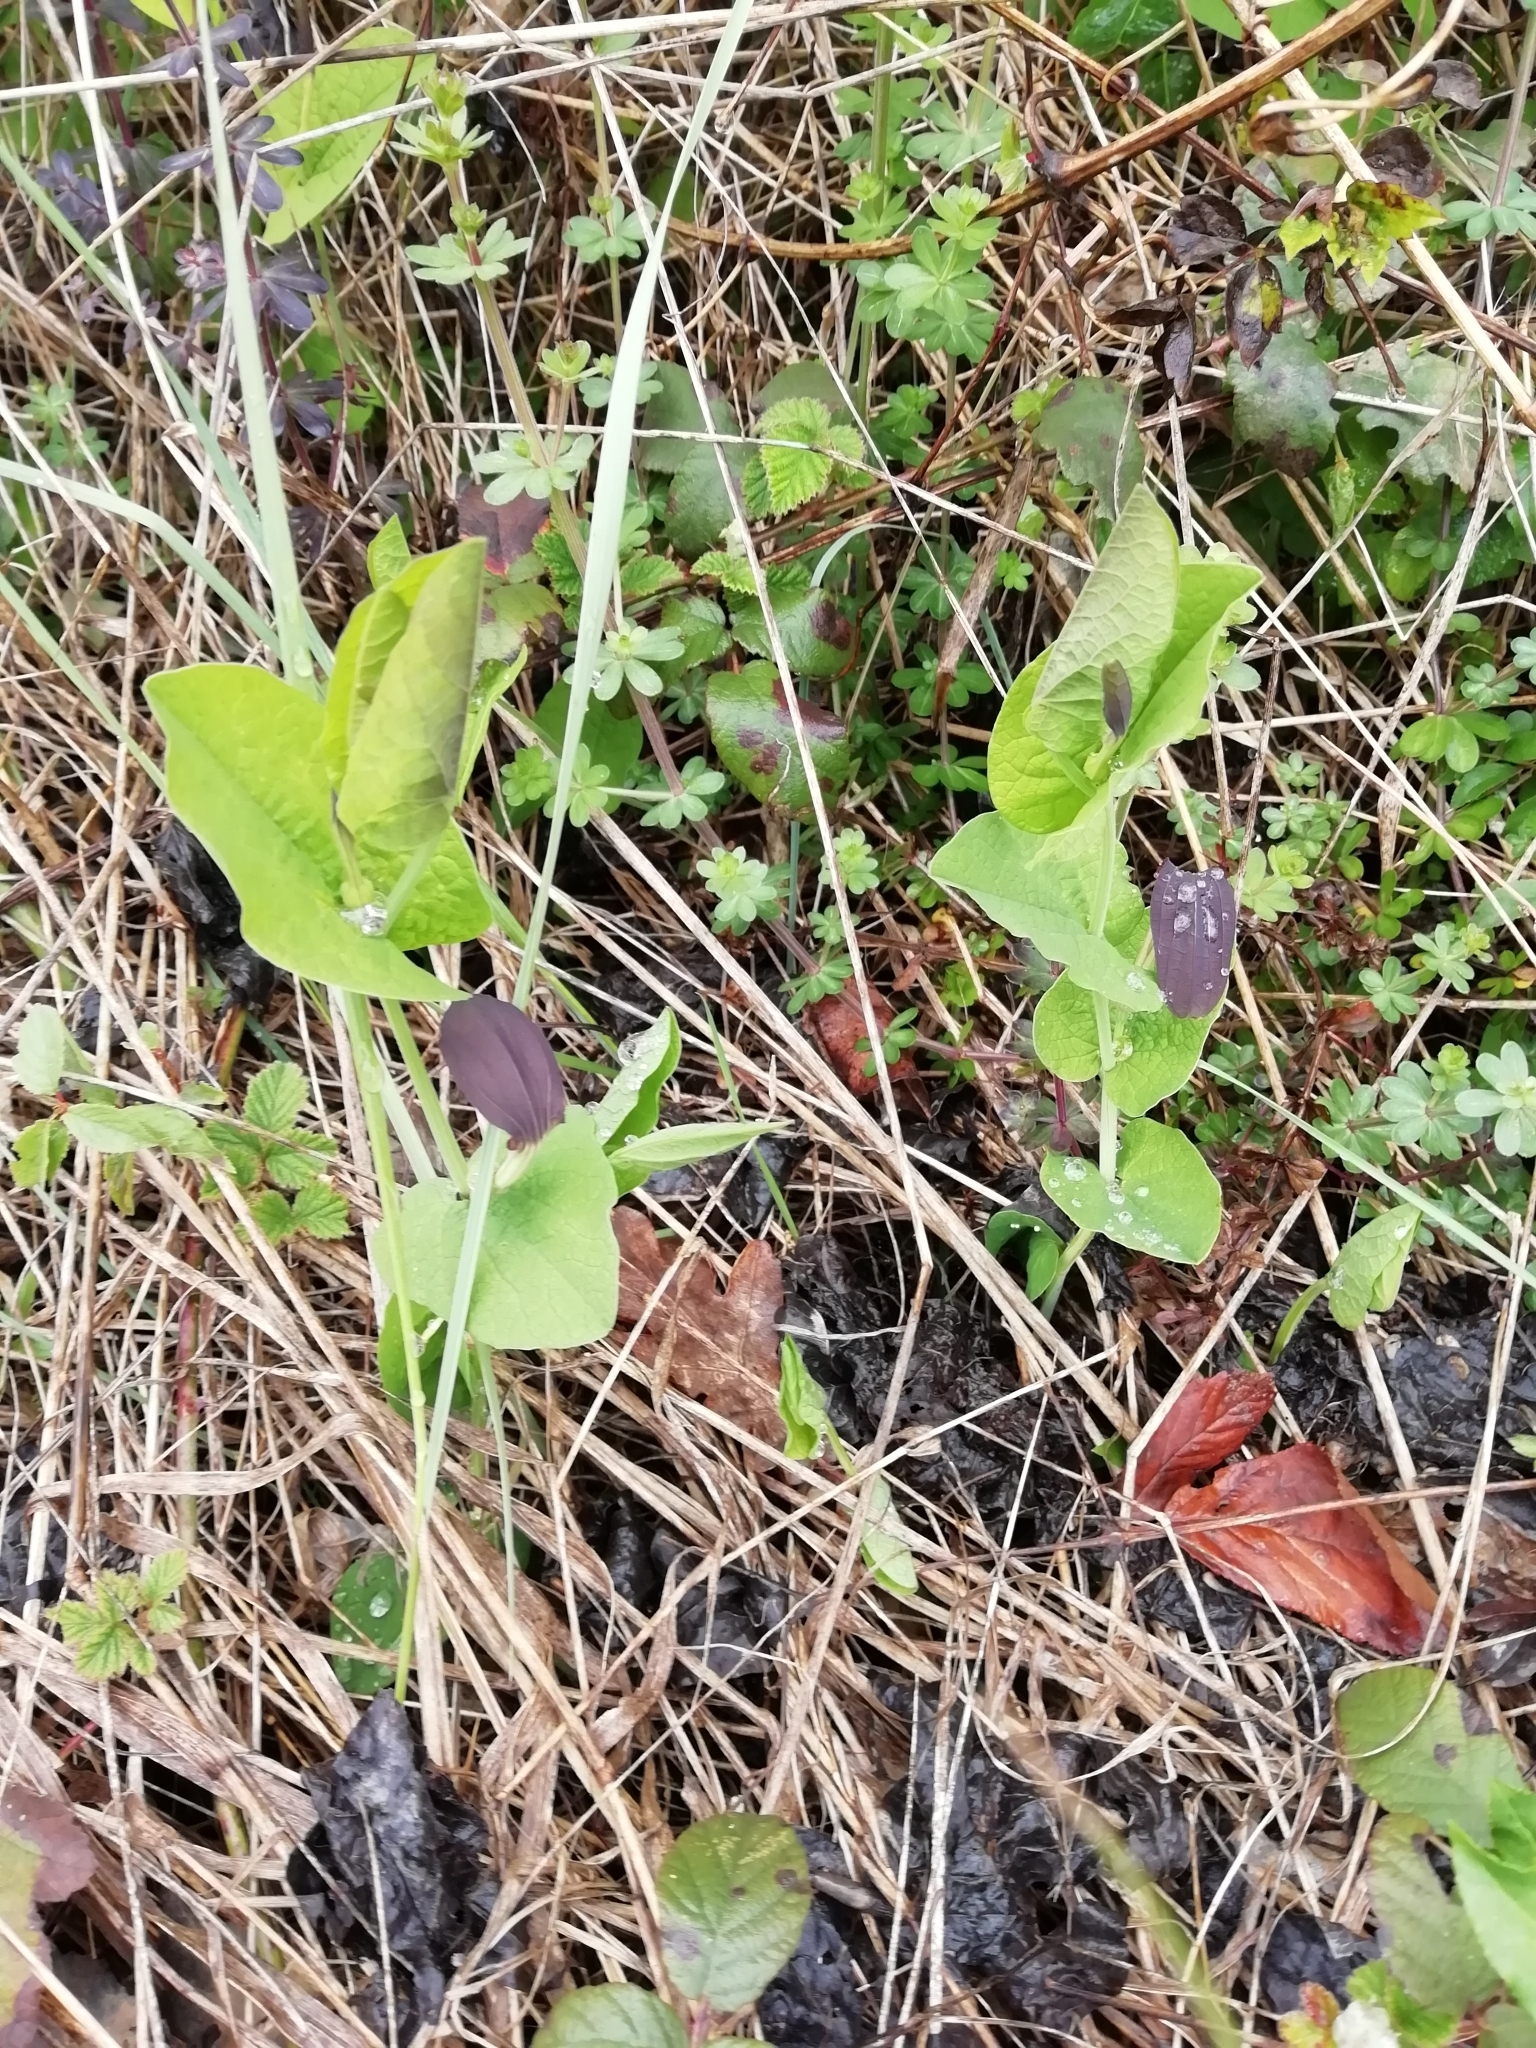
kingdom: Plantae
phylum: Tracheophyta
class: Magnoliopsida
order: Piperales
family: Aristolochiaceae
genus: Aristolochia
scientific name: Aristolochia rotunda
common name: Smearwort
